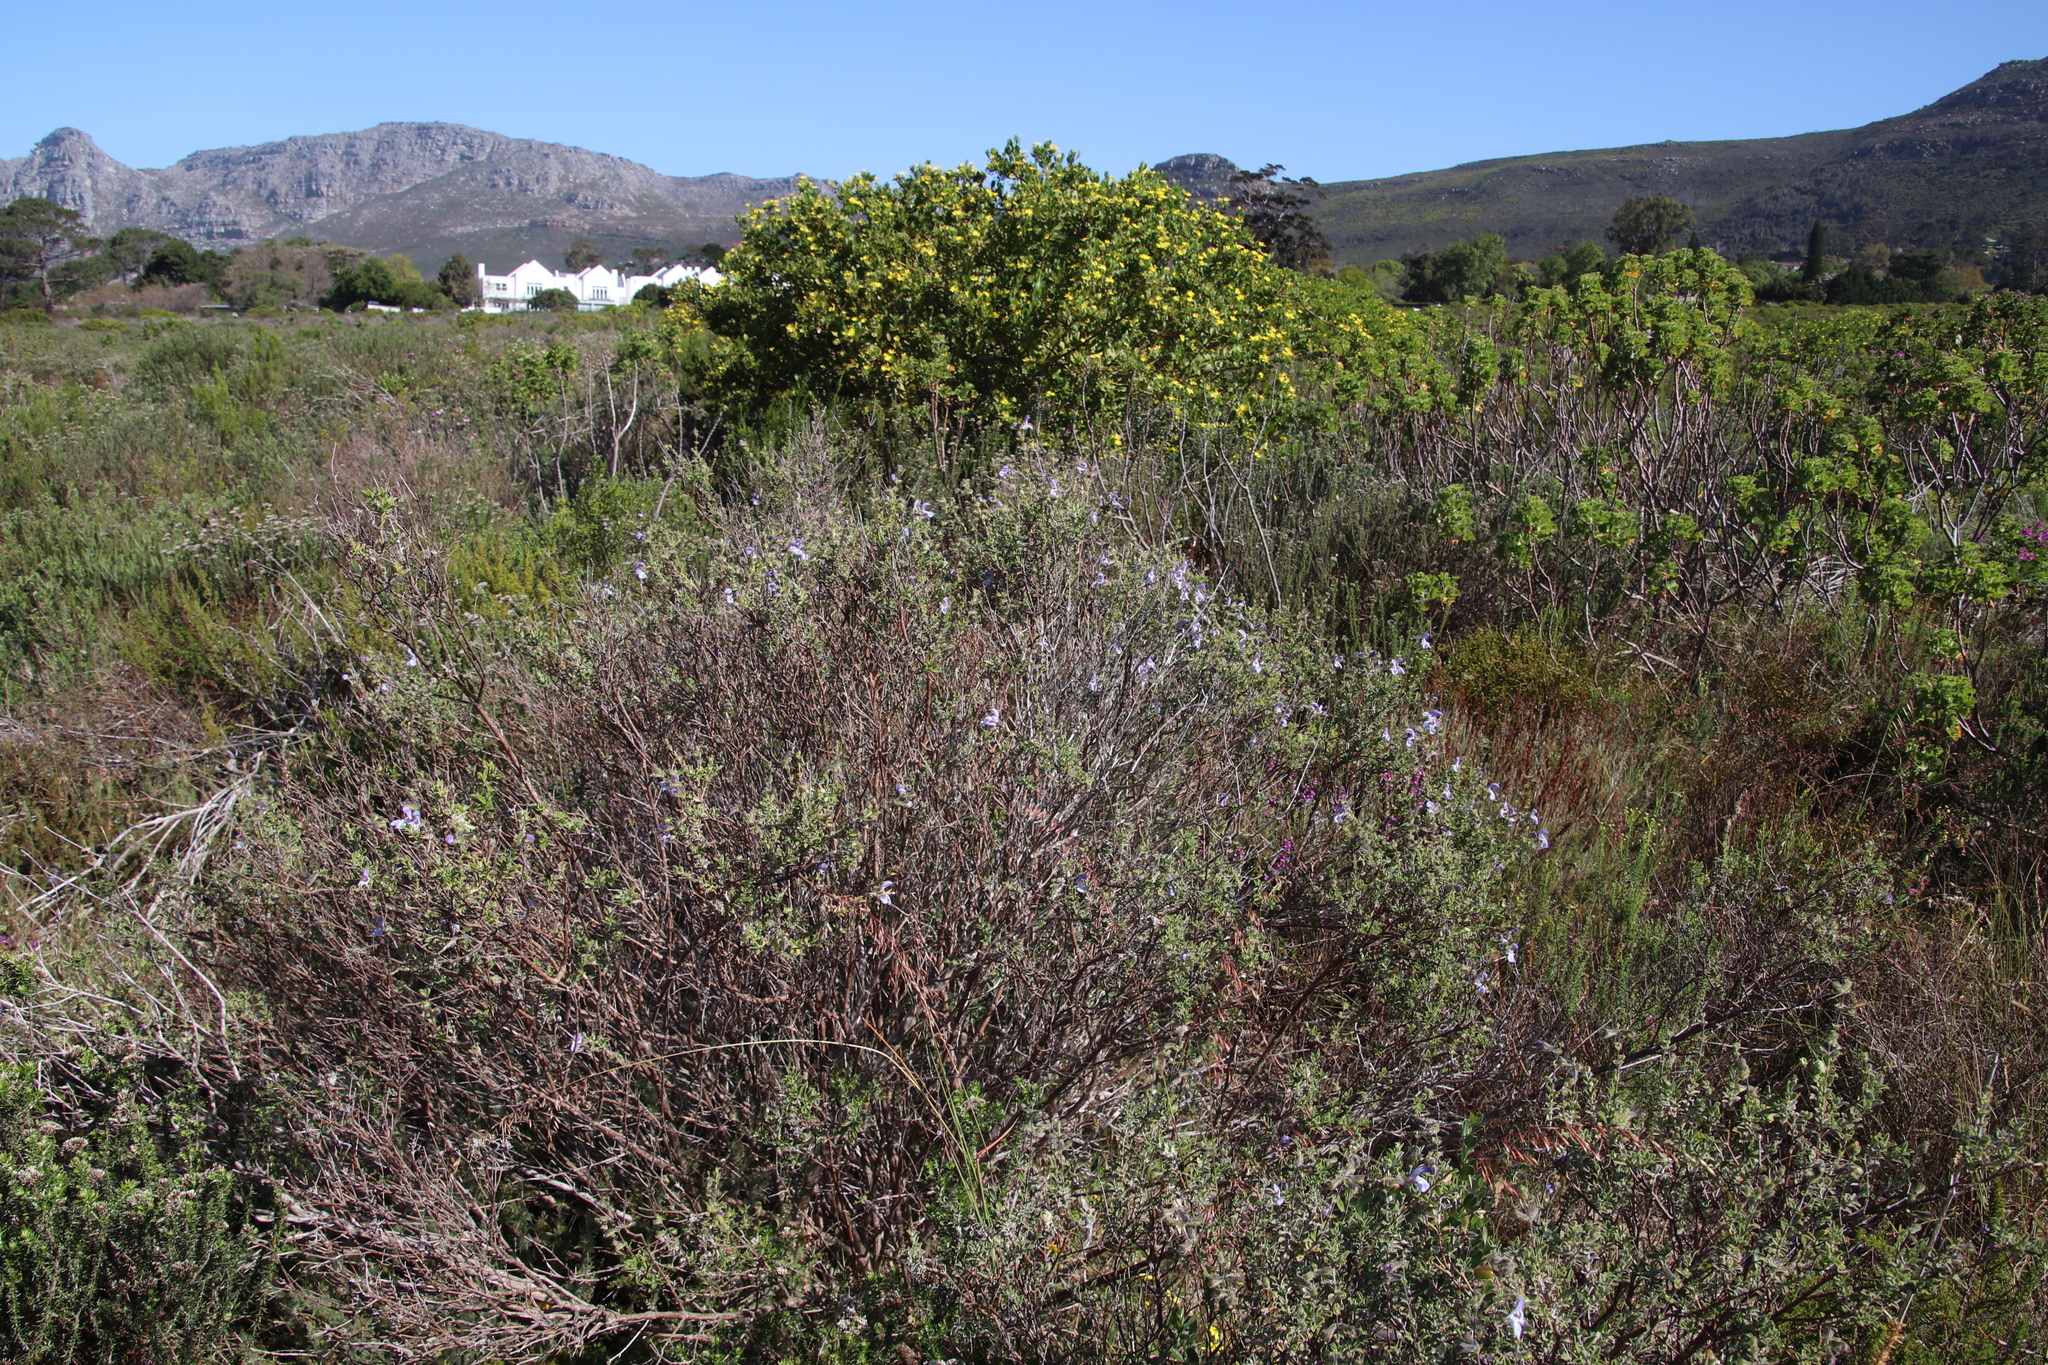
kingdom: Plantae
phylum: Tracheophyta
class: Magnoliopsida
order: Lamiales
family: Lamiaceae
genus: Salvia
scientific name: Salvia africana
